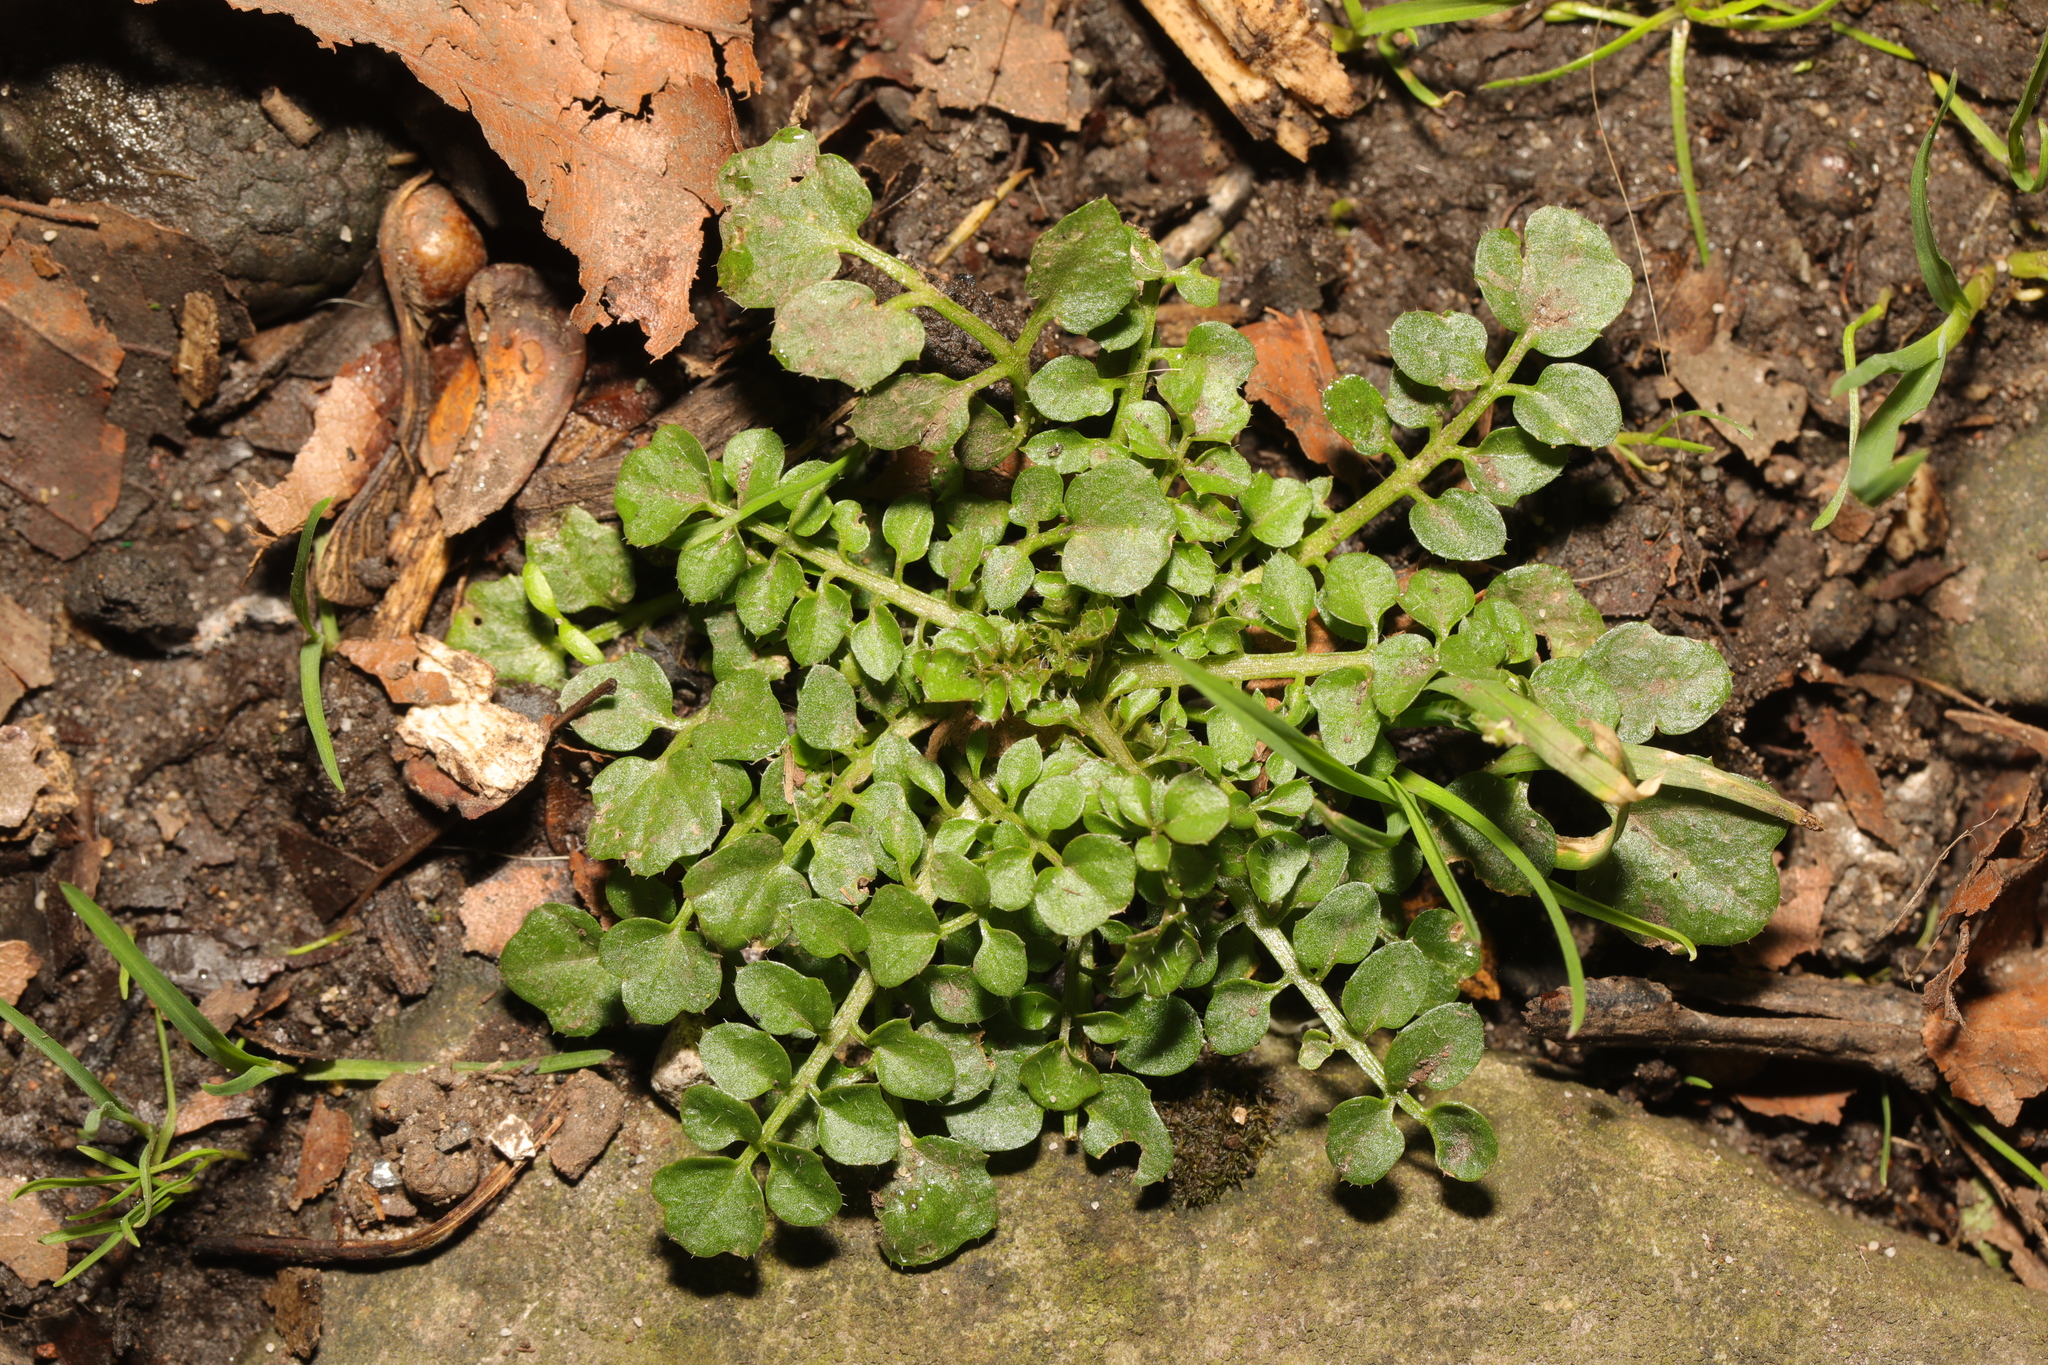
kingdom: Plantae
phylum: Tracheophyta
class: Magnoliopsida
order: Brassicales
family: Brassicaceae
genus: Cardamine
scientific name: Cardamine hirsuta
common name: Hairy bittercress
